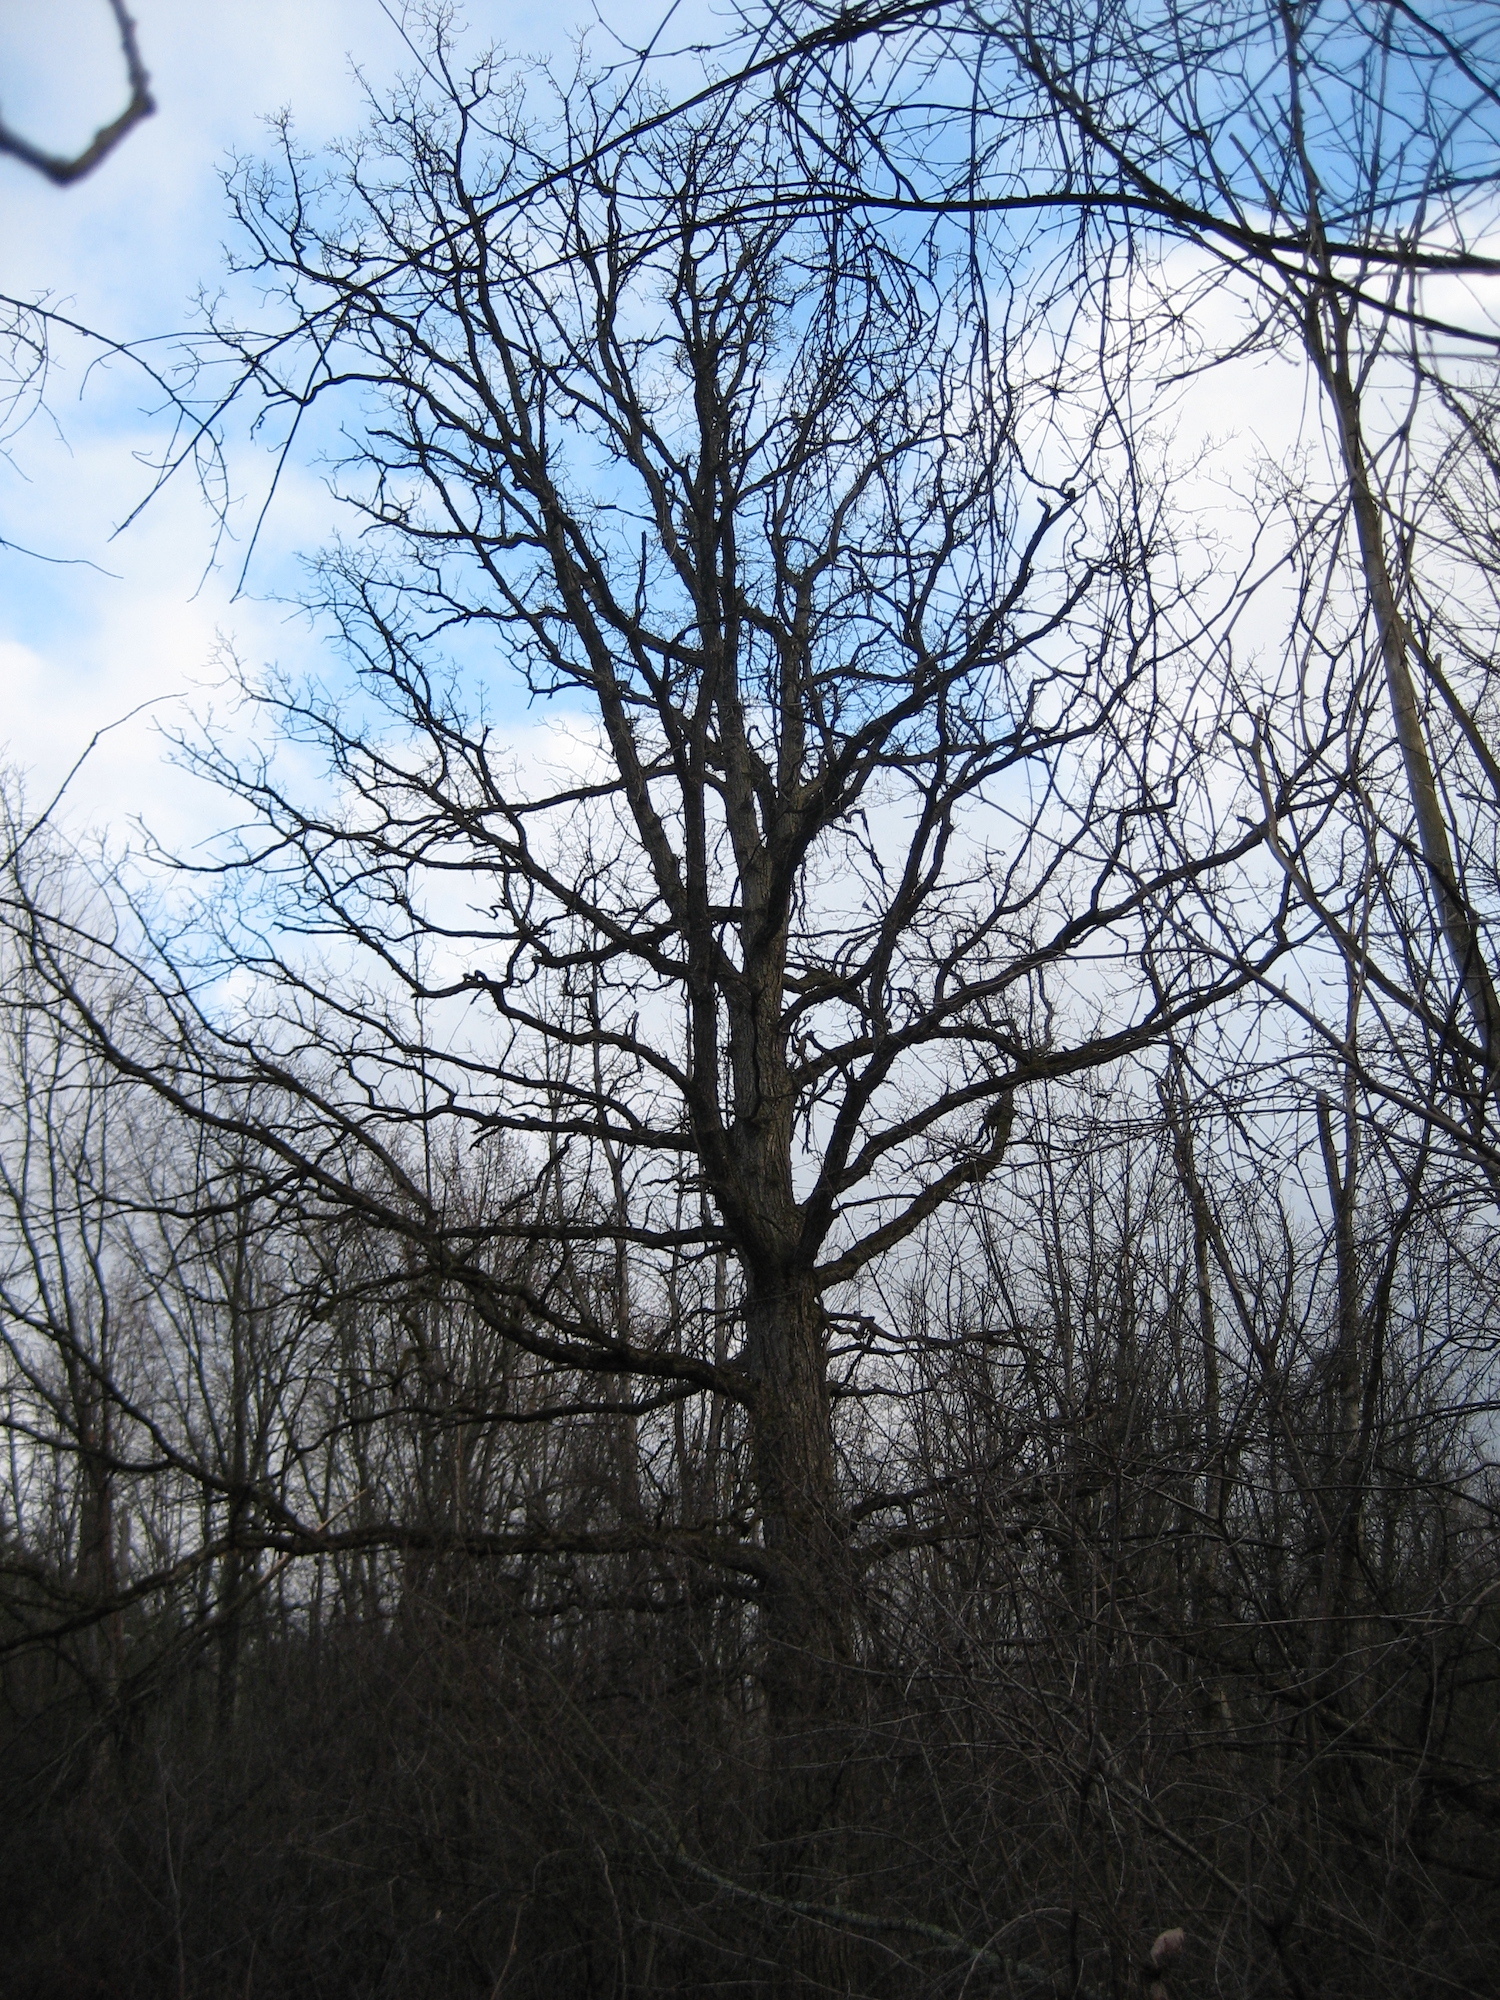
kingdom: Plantae
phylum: Tracheophyta
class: Magnoliopsida
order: Fagales
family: Fagaceae
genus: Quercus
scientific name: Quercus macrocarpa
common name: Bur oak
